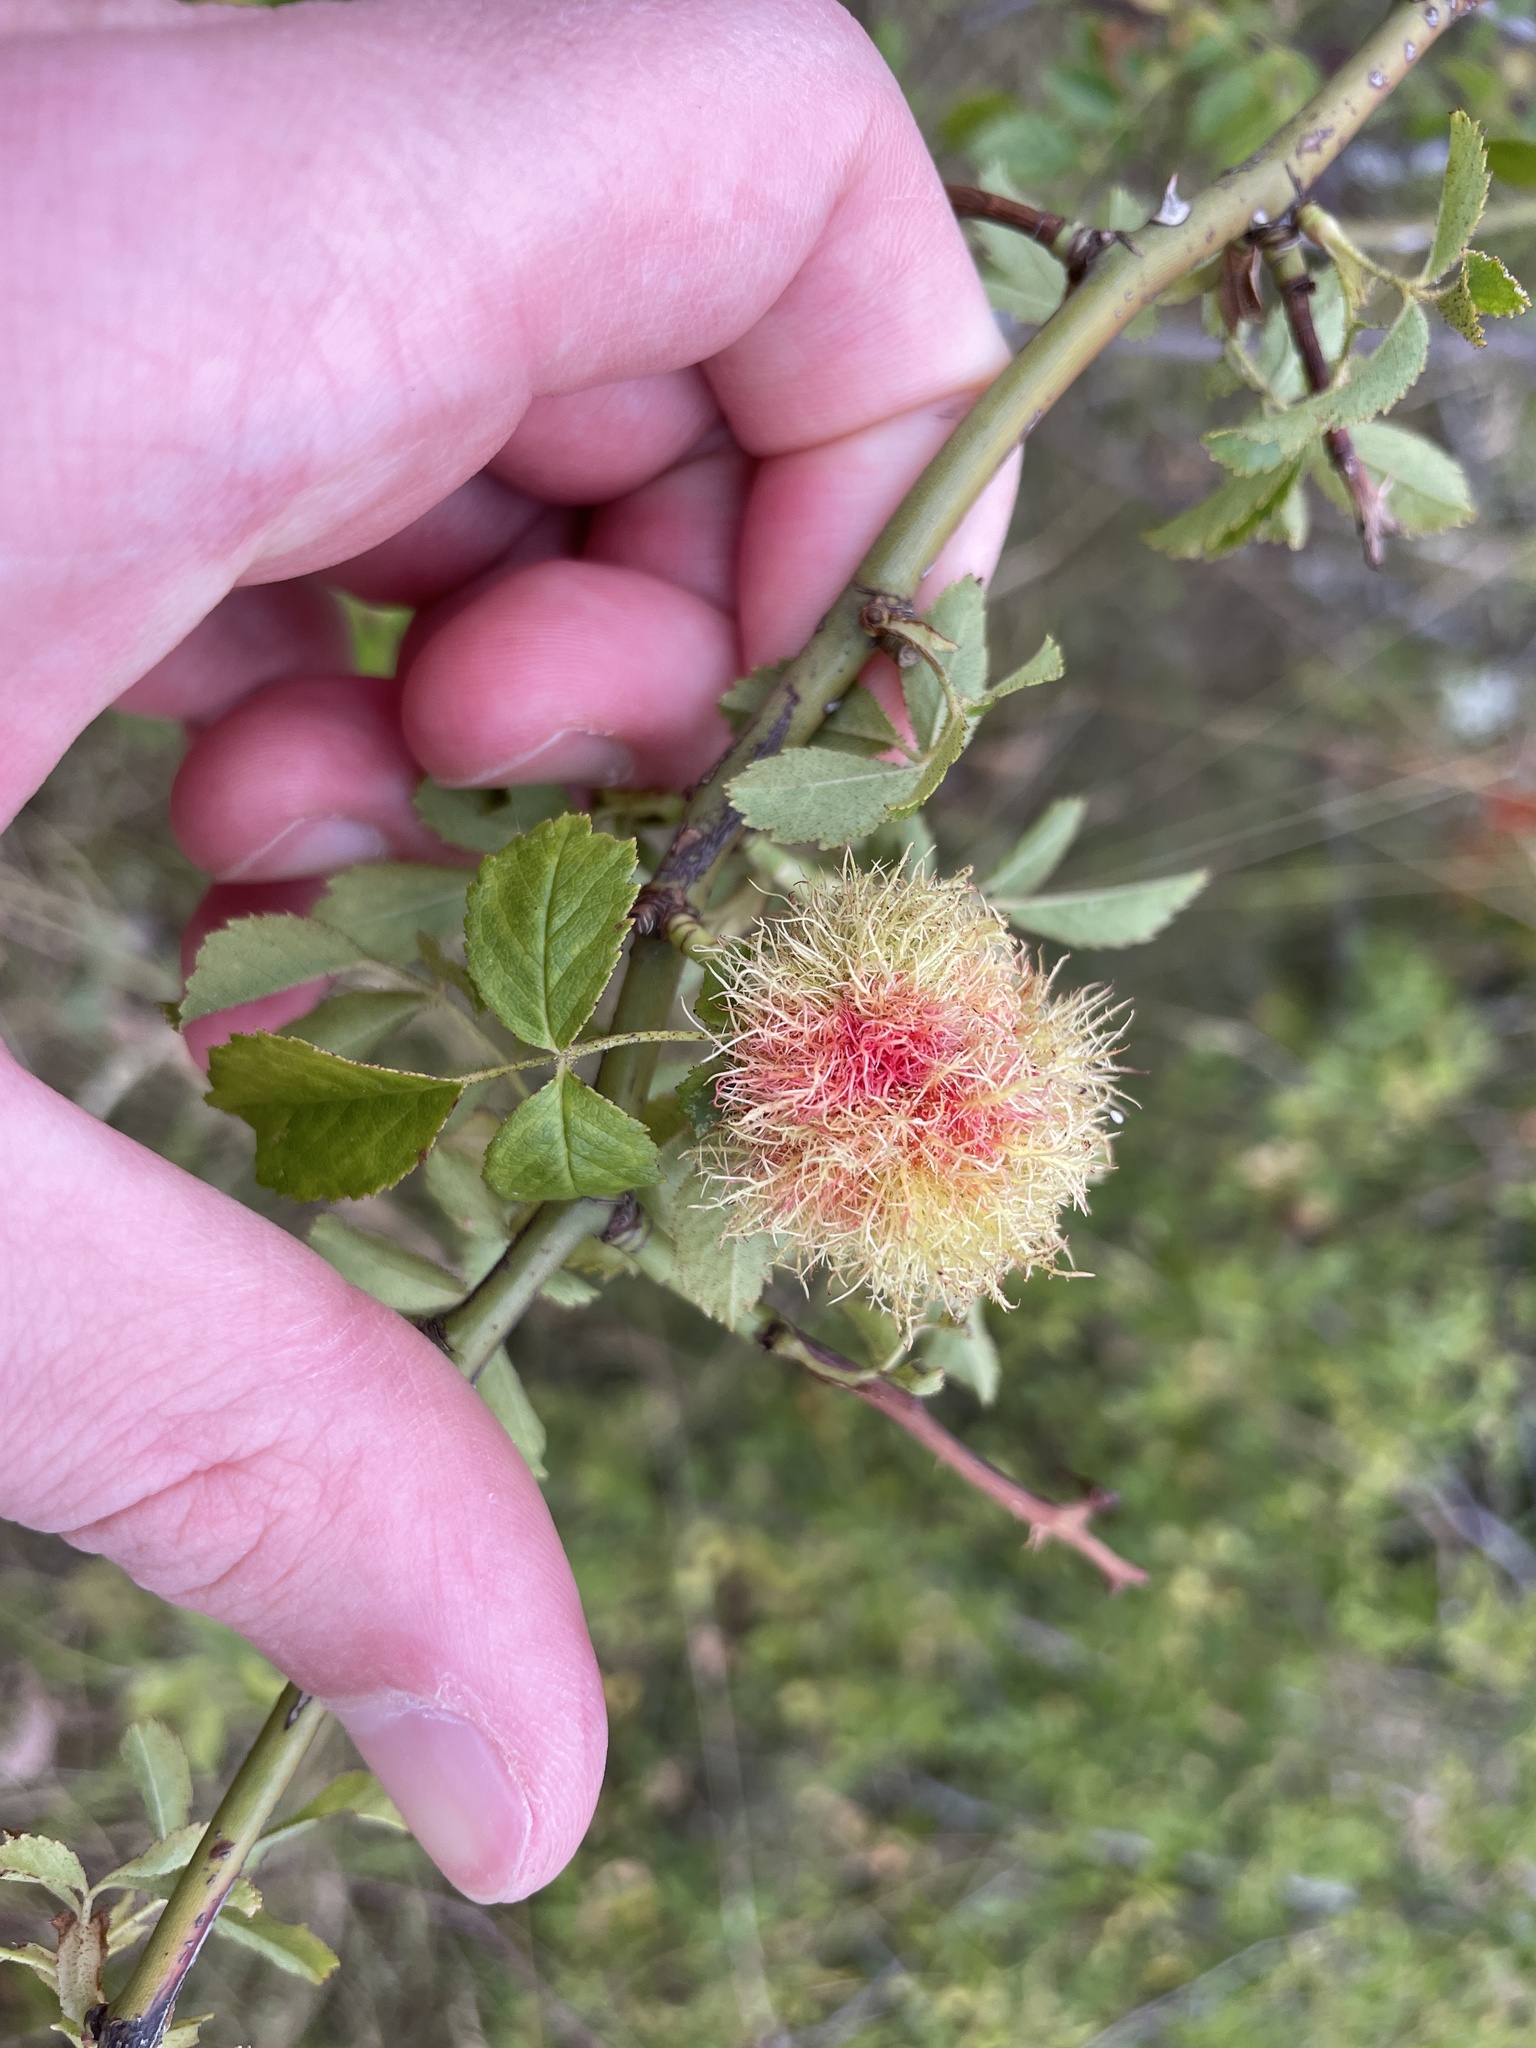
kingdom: Animalia
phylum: Arthropoda
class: Insecta
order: Hymenoptera
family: Cynipidae
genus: Diplolepis
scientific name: Diplolepis rosae
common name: Bedeguar gall
